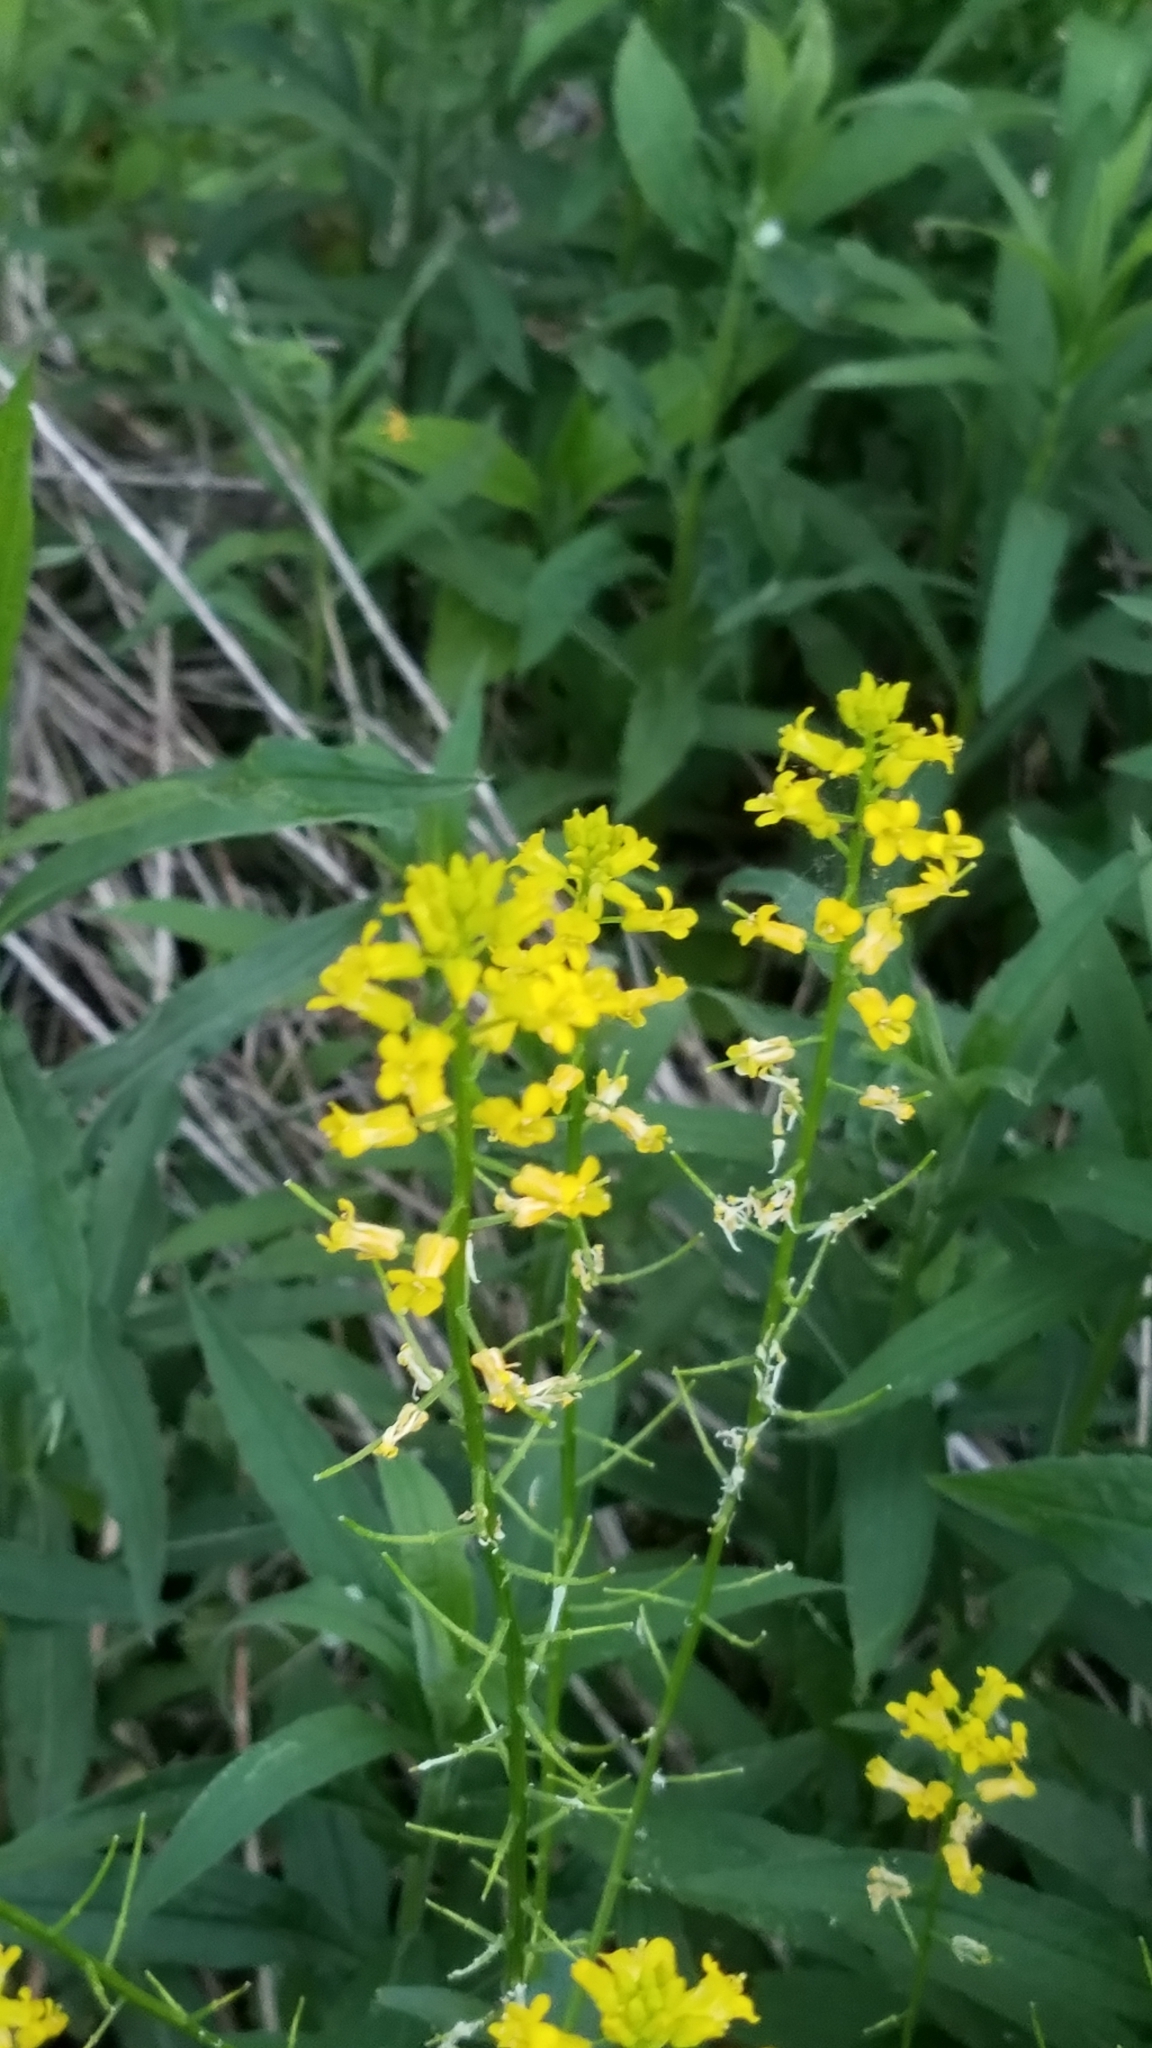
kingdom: Plantae
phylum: Tracheophyta
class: Magnoliopsida
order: Brassicales
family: Brassicaceae
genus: Barbarea
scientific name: Barbarea vulgaris
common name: Cressy-greens
